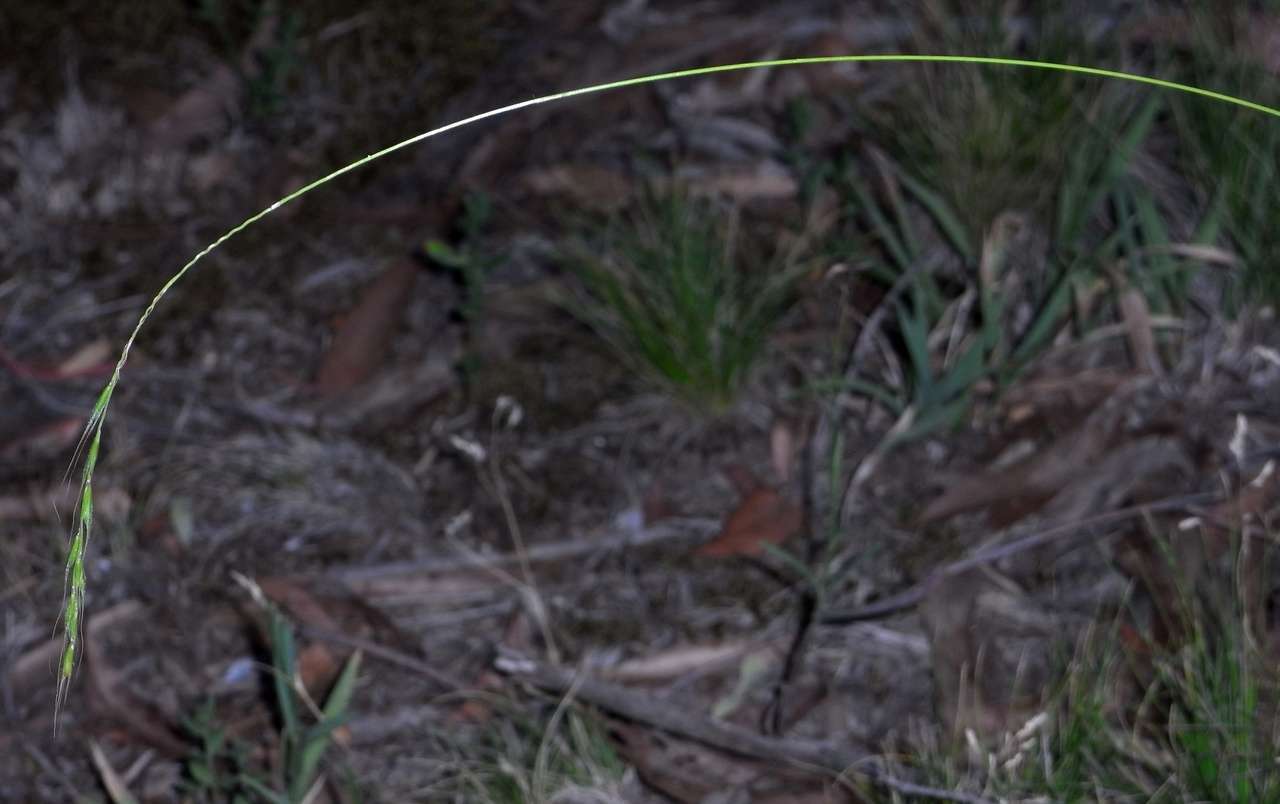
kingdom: Plantae
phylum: Tracheophyta
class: Liliopsida
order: Poales
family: Poaceae
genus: Microlaena
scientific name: Microlaena stipoides
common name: Meadow ricegrass
